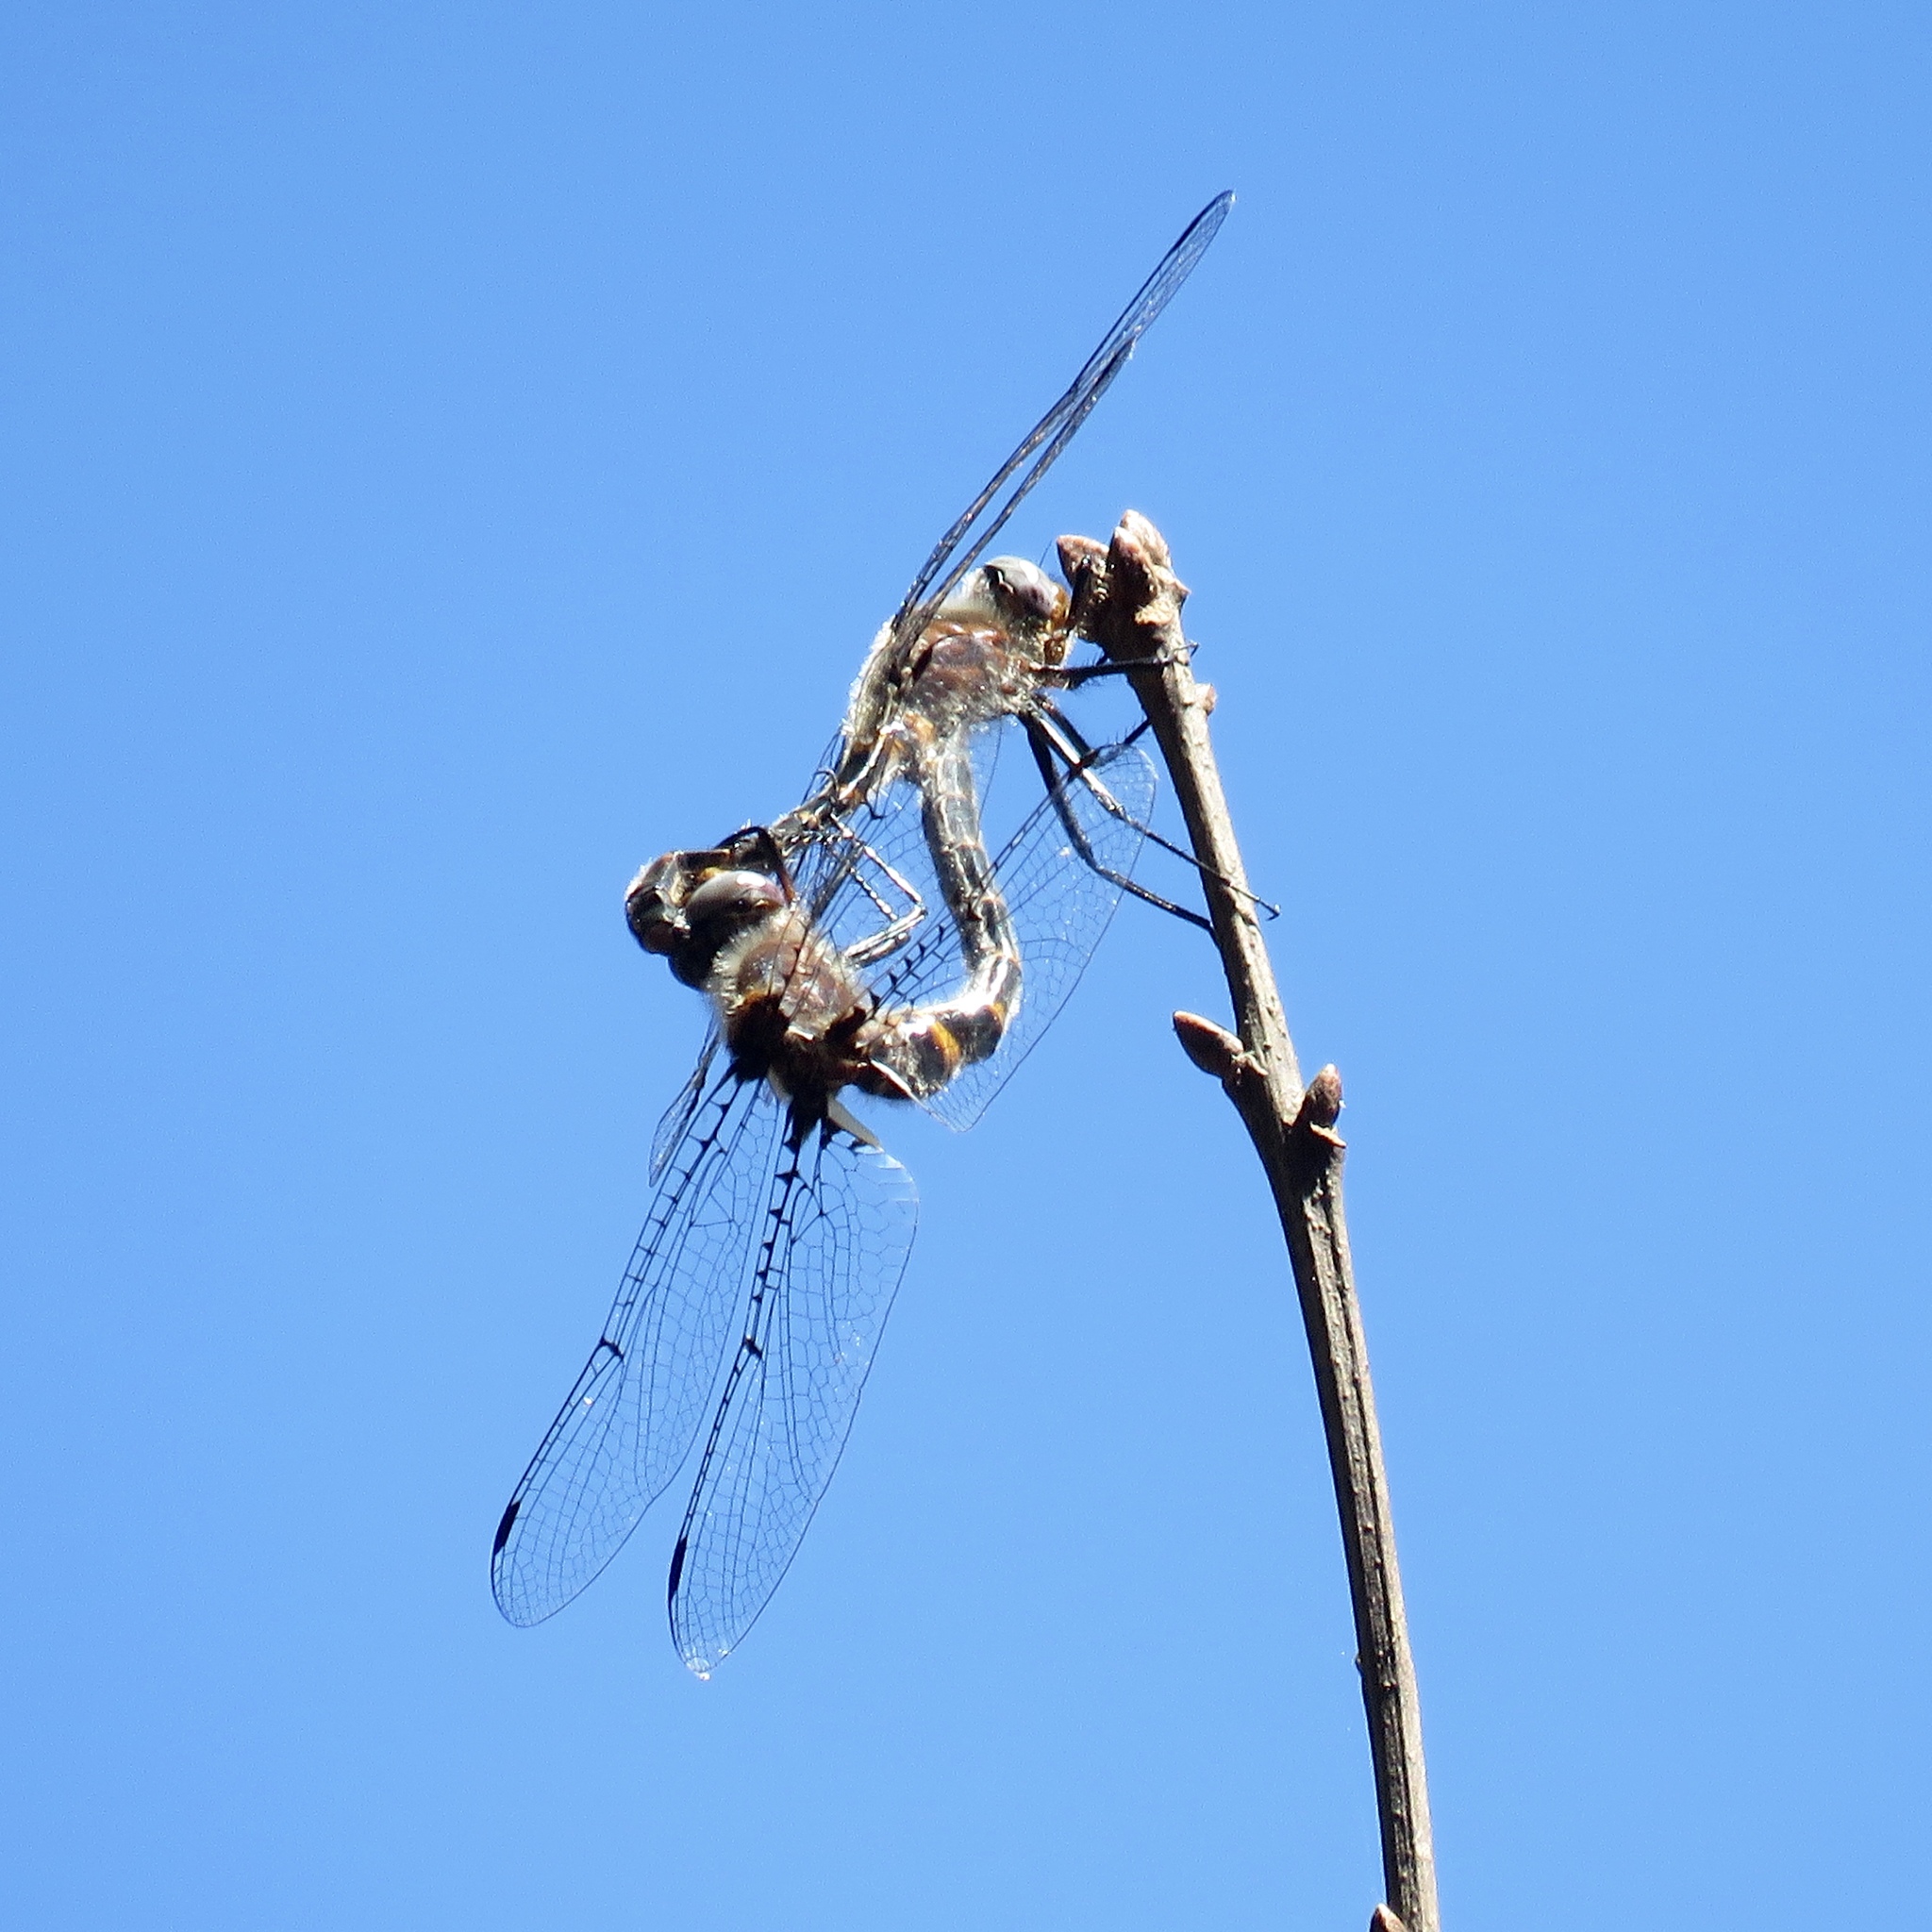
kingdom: Animalia
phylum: Arthropoda
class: Insecta
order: Odonata
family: Corduliidae
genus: Helocordulia
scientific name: Helocordulia selysii
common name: Selys's sundragon
